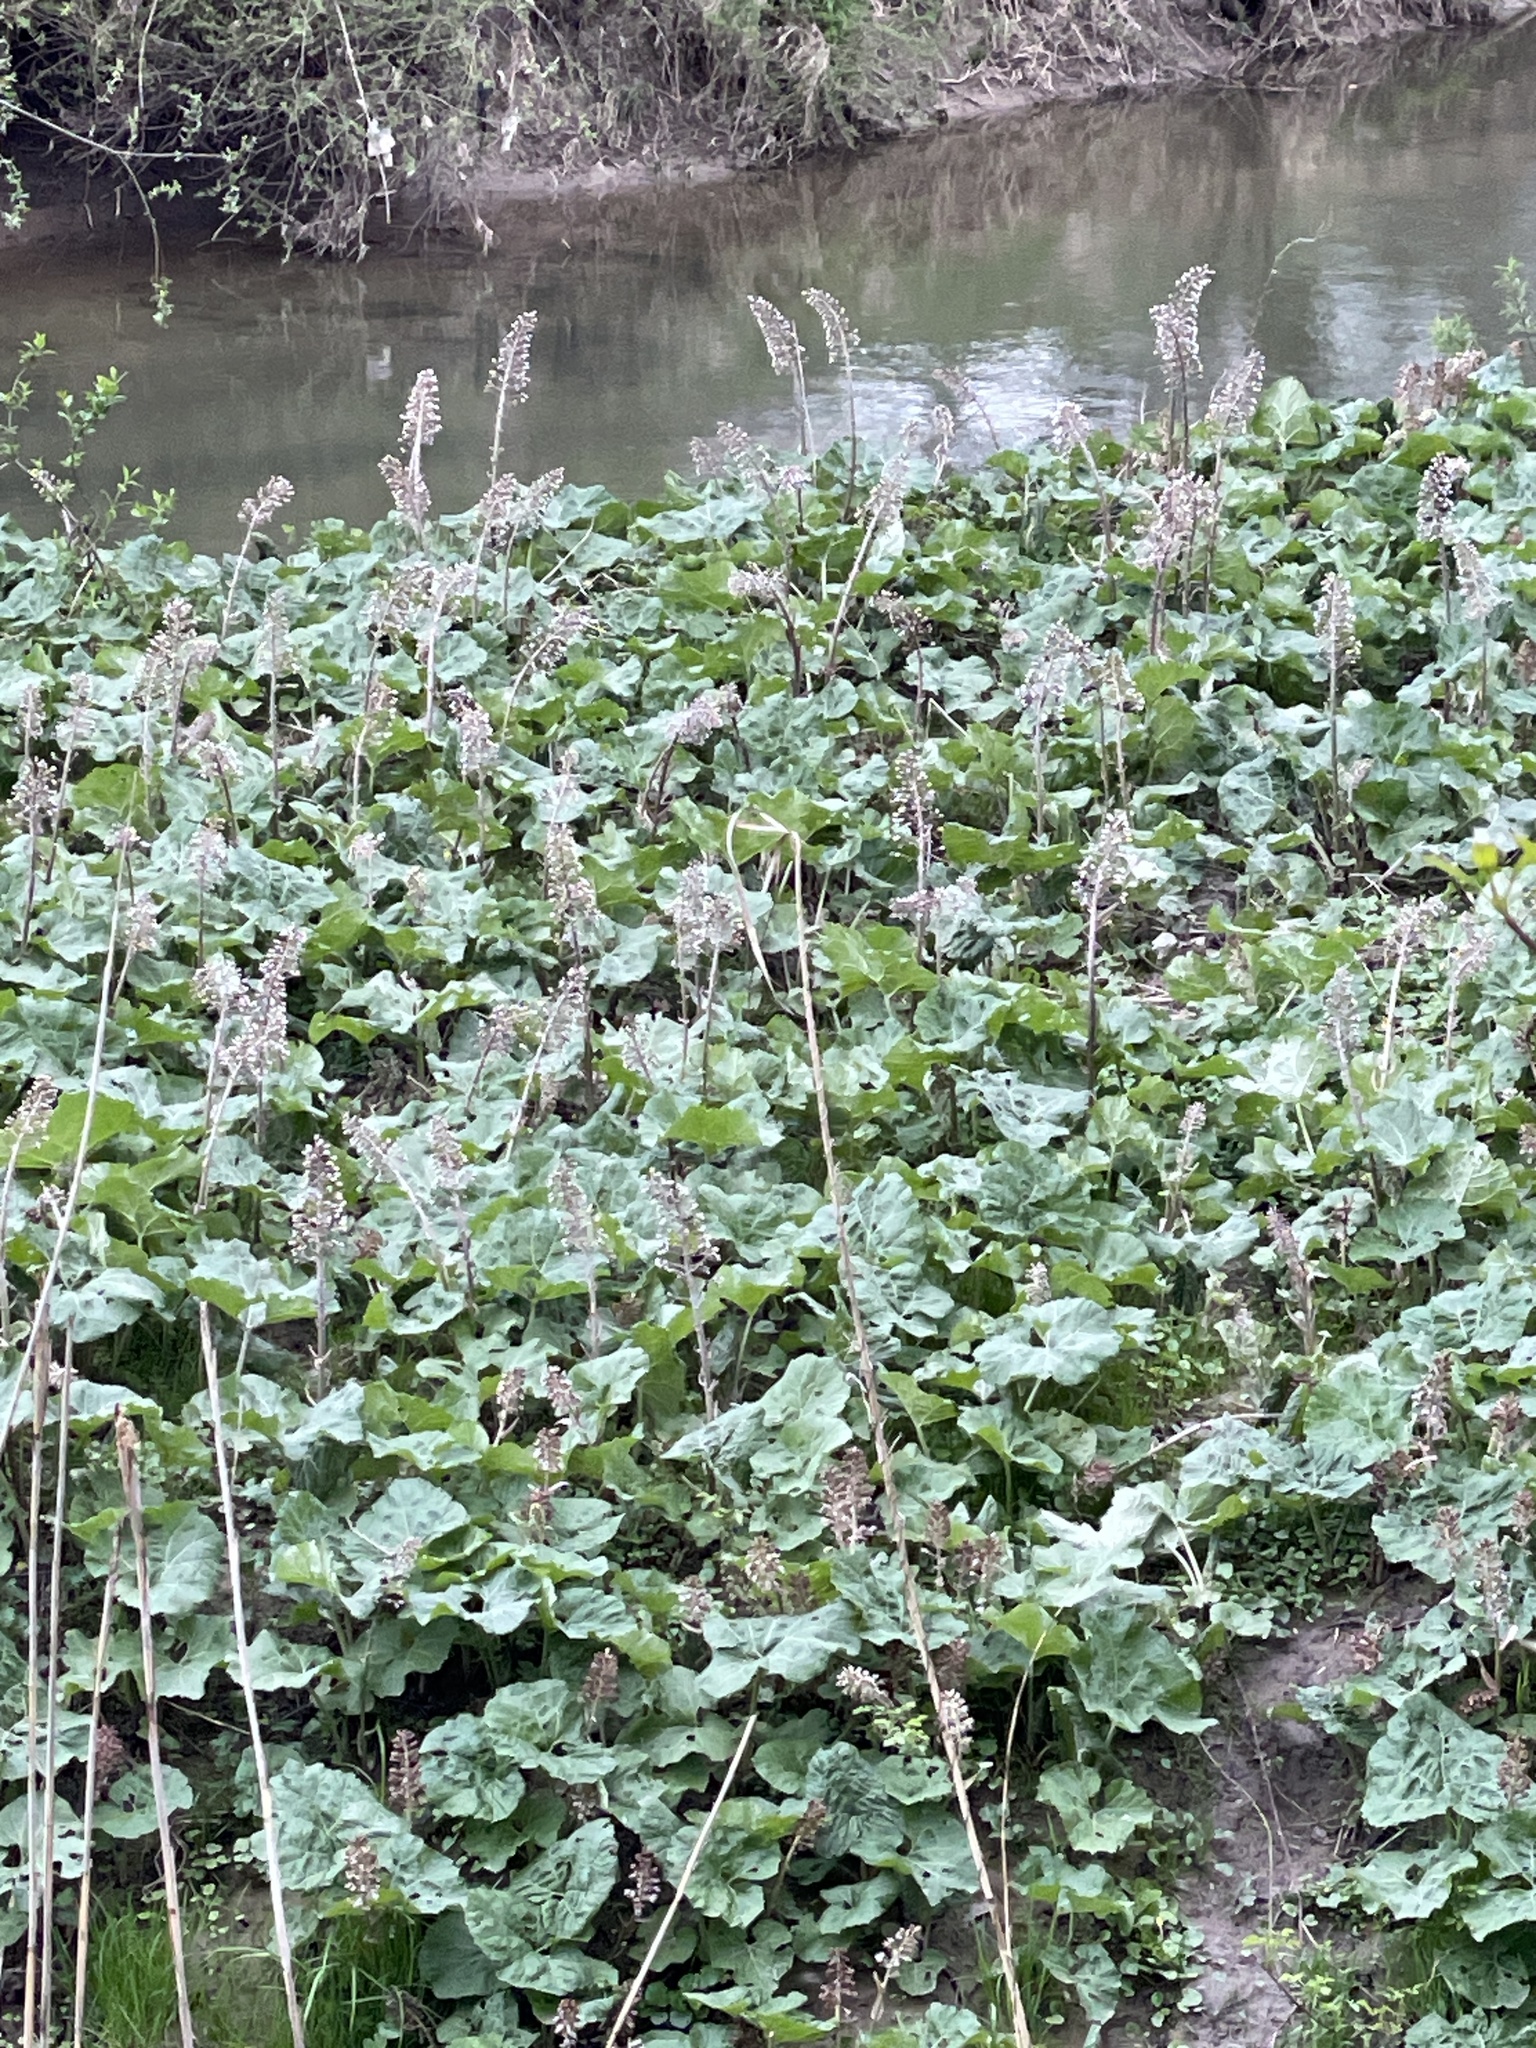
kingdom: Plantae
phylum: Tracheophyta
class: Magnoliopsida
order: Asterales
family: Asteraceae
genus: Petasites
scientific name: Petasites hybridus
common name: Butterbur
